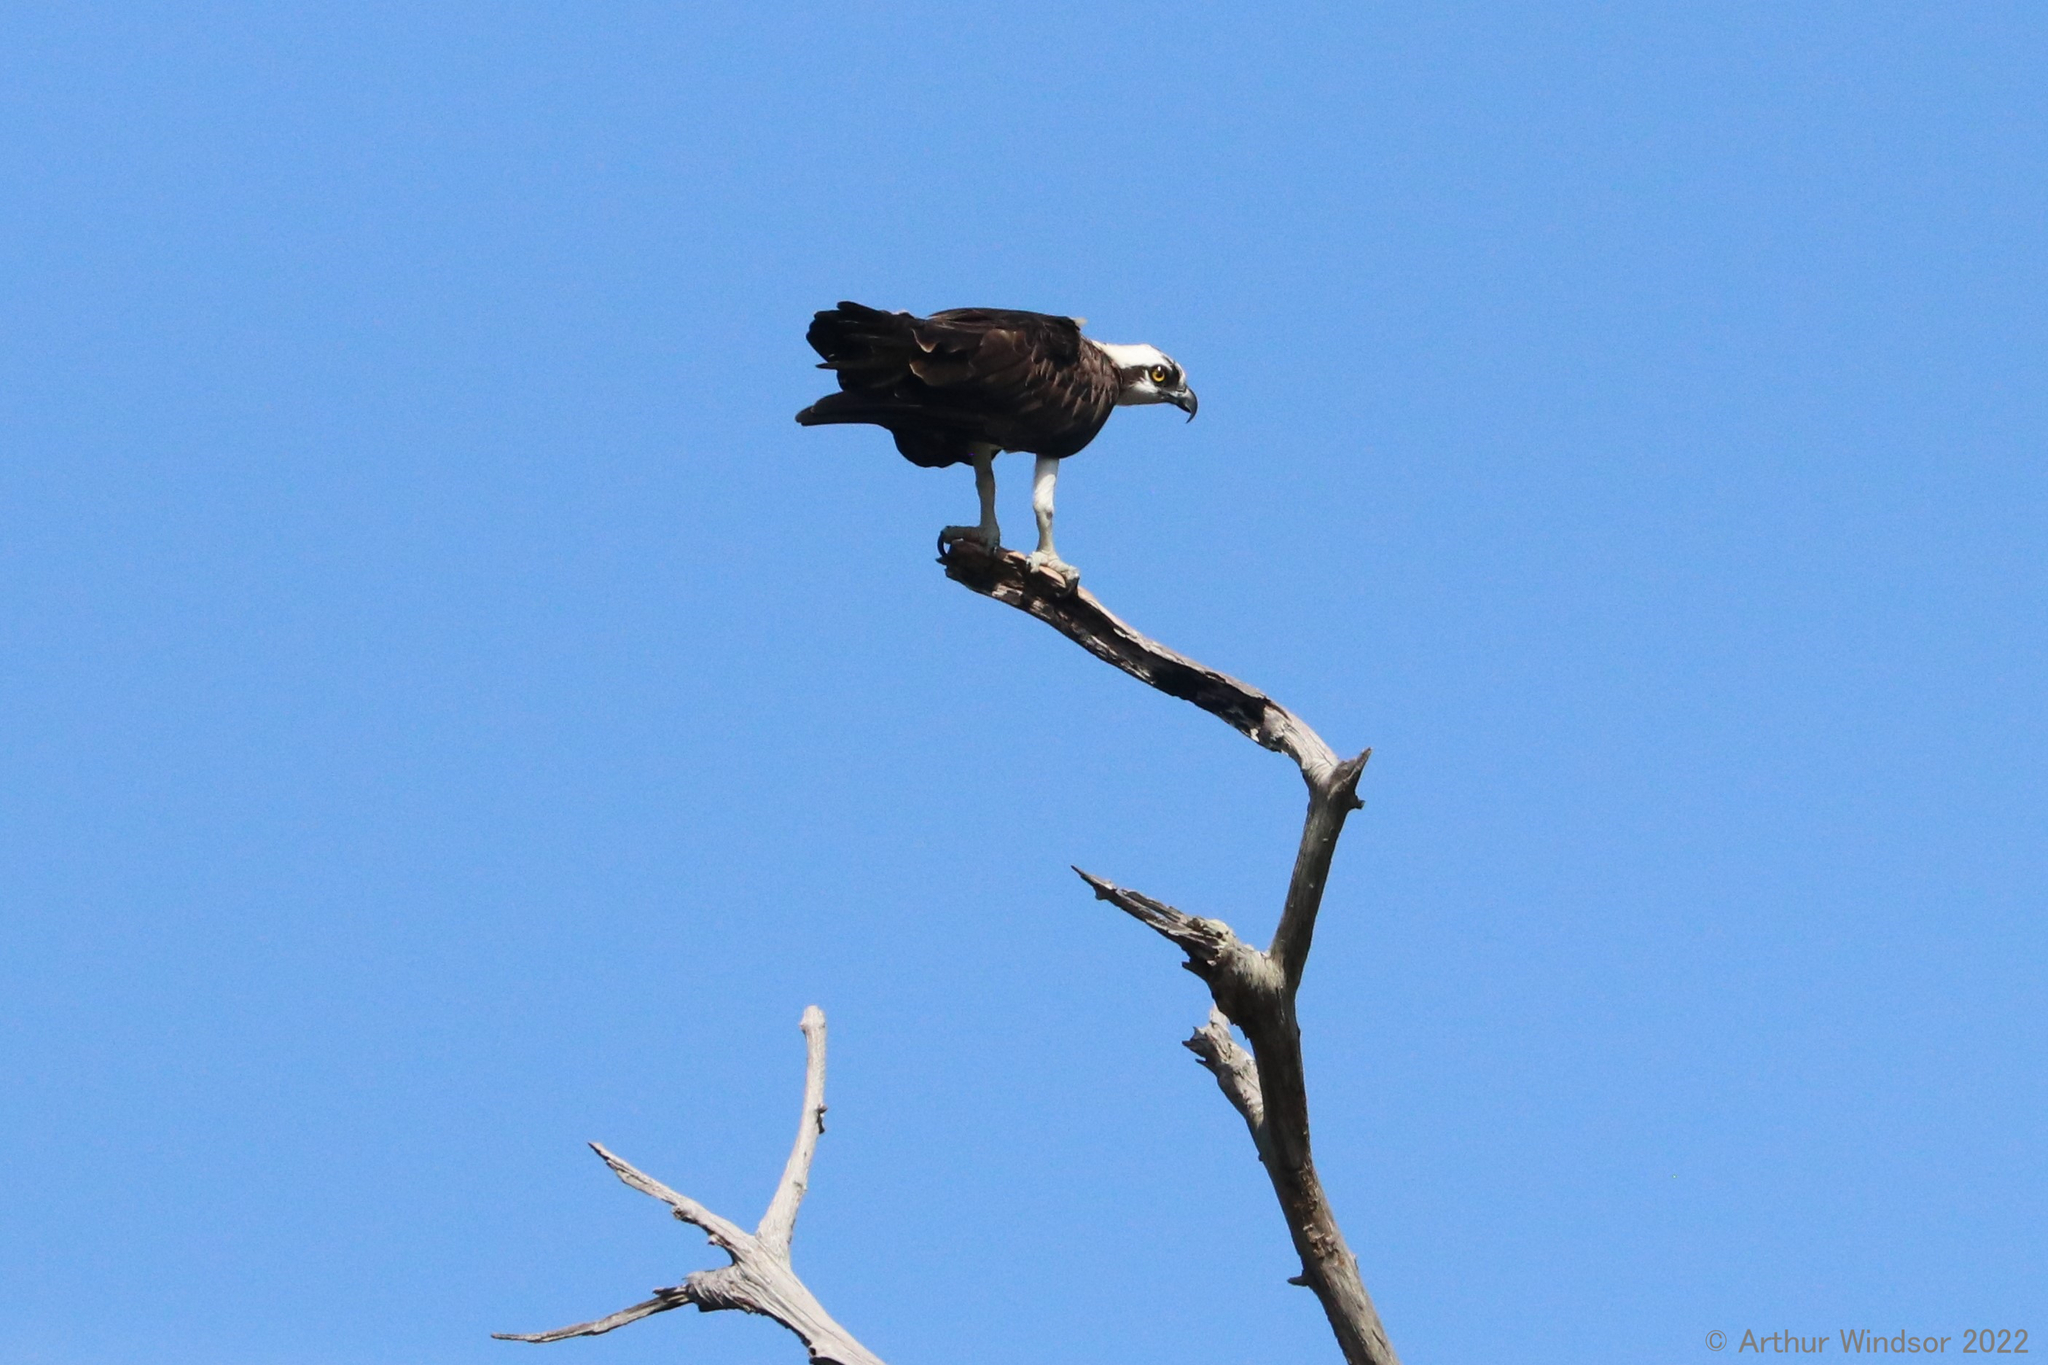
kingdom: Animalia
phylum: Chordata
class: Aves
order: Accipitriformes
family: Pandionidae
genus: Pandion
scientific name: Pandion haliaetus
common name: Osprey
